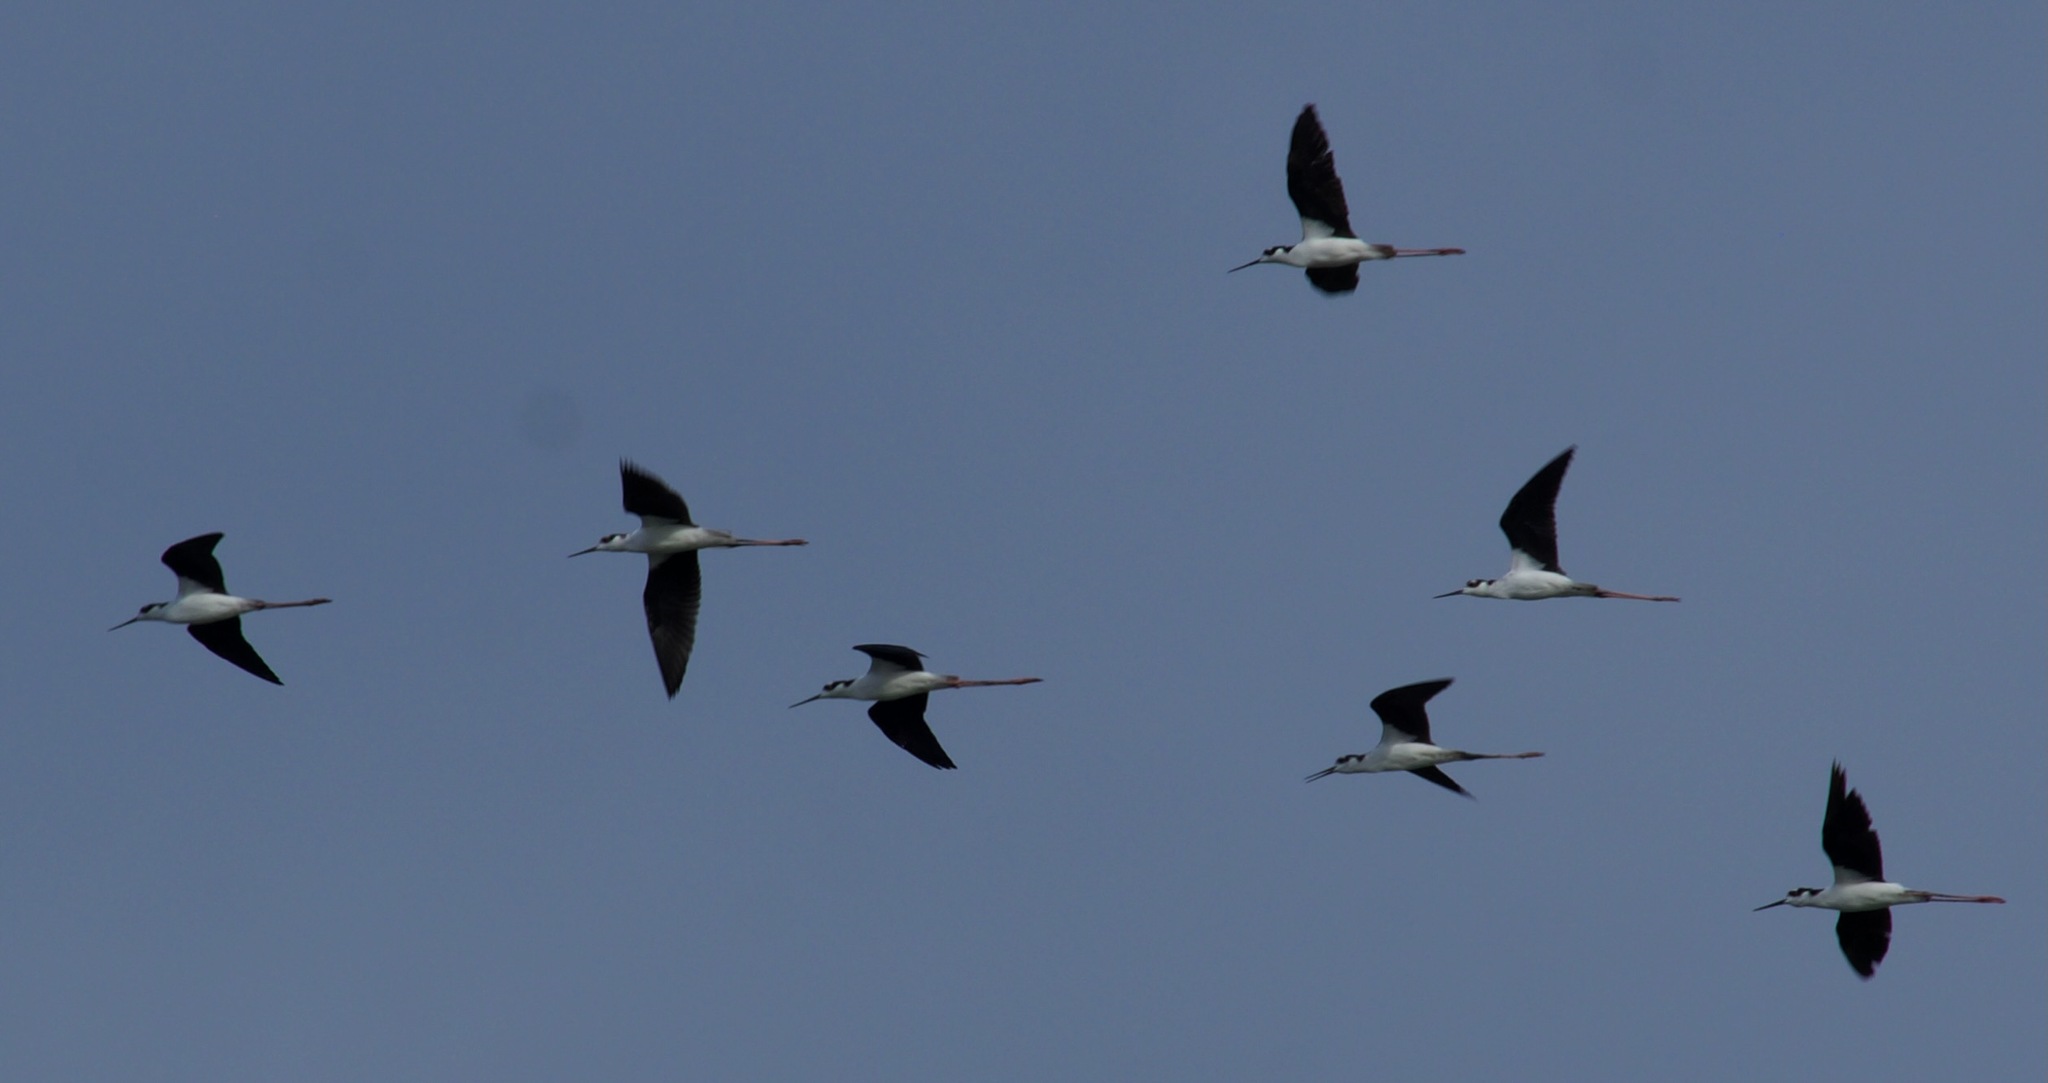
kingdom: Animalia
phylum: Chordata
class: Aves
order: Charadriiformes
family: Recurvirostridae
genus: Himantopus
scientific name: Himantopus mexicanus
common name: Black-necked stilt
